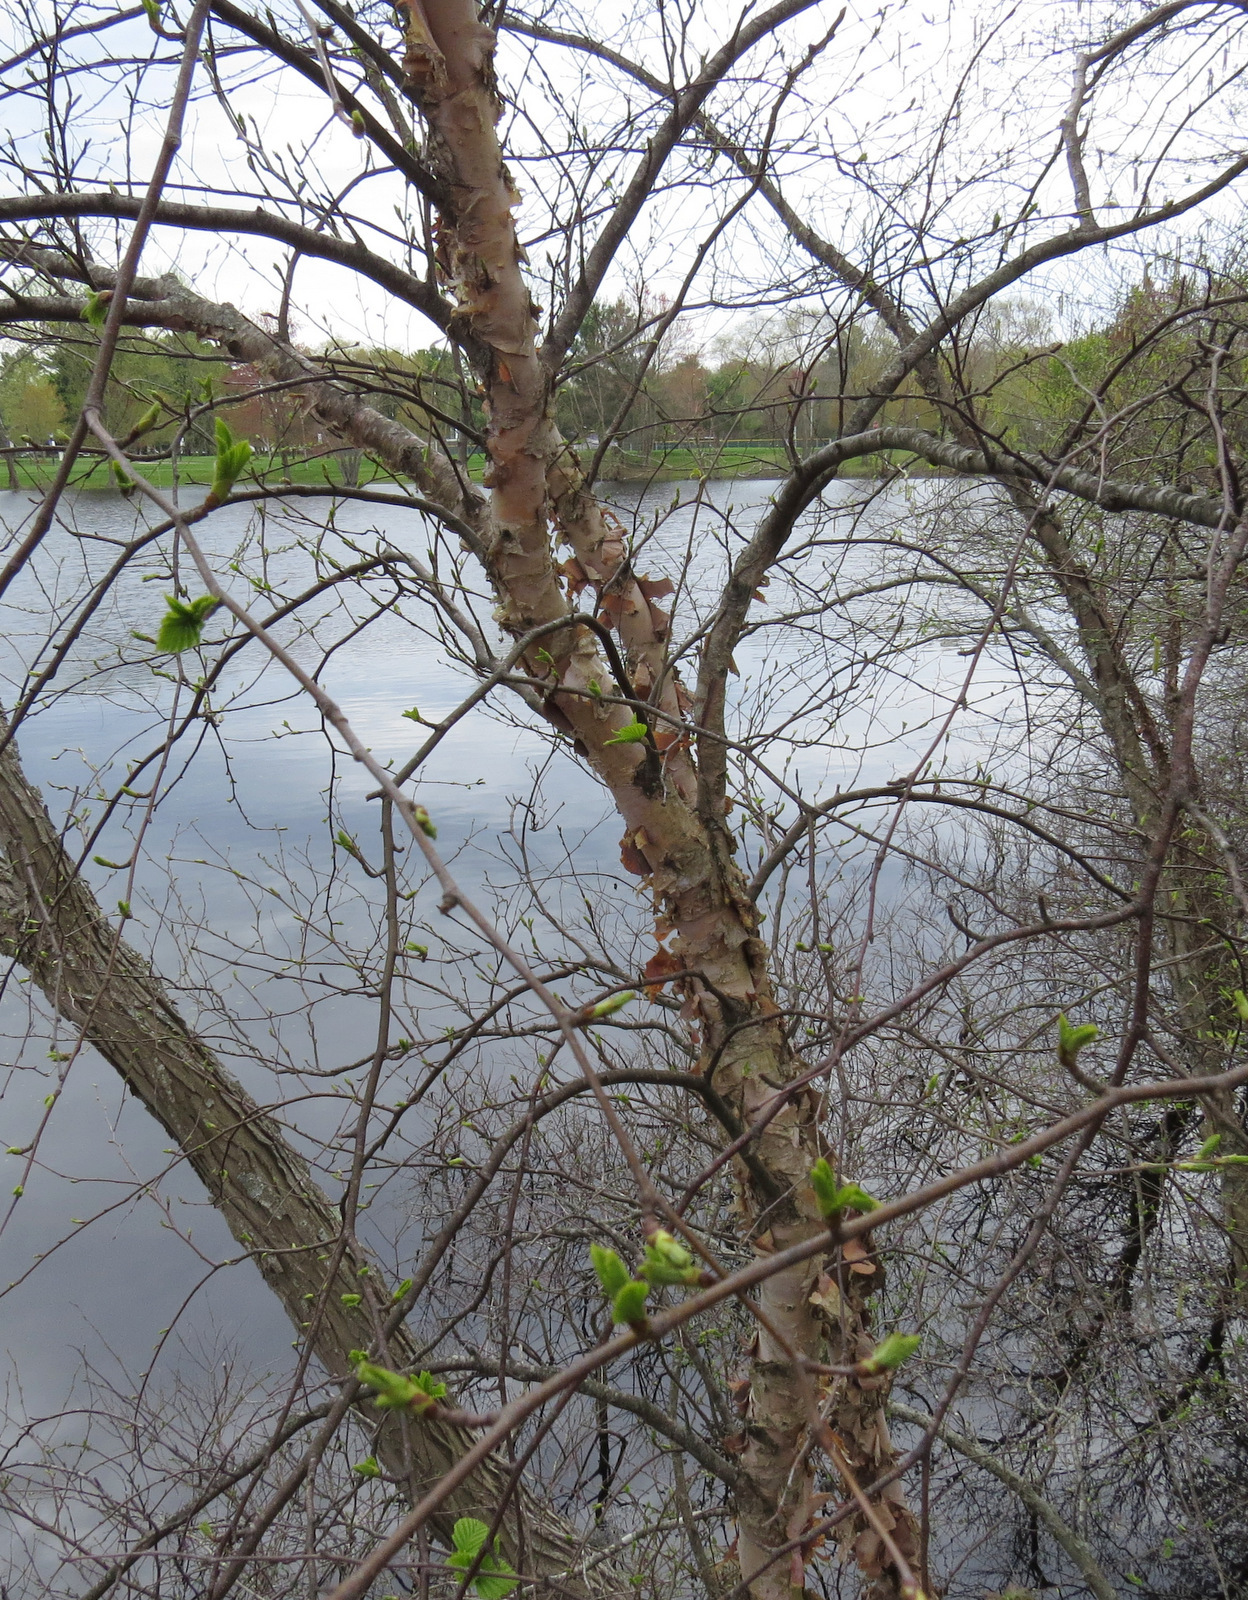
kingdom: Plantae
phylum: Tracheophyta
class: Magnoliopsida
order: Fagales
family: Betulaceae
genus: Betula
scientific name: Betula papyrifera
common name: Paper birch
